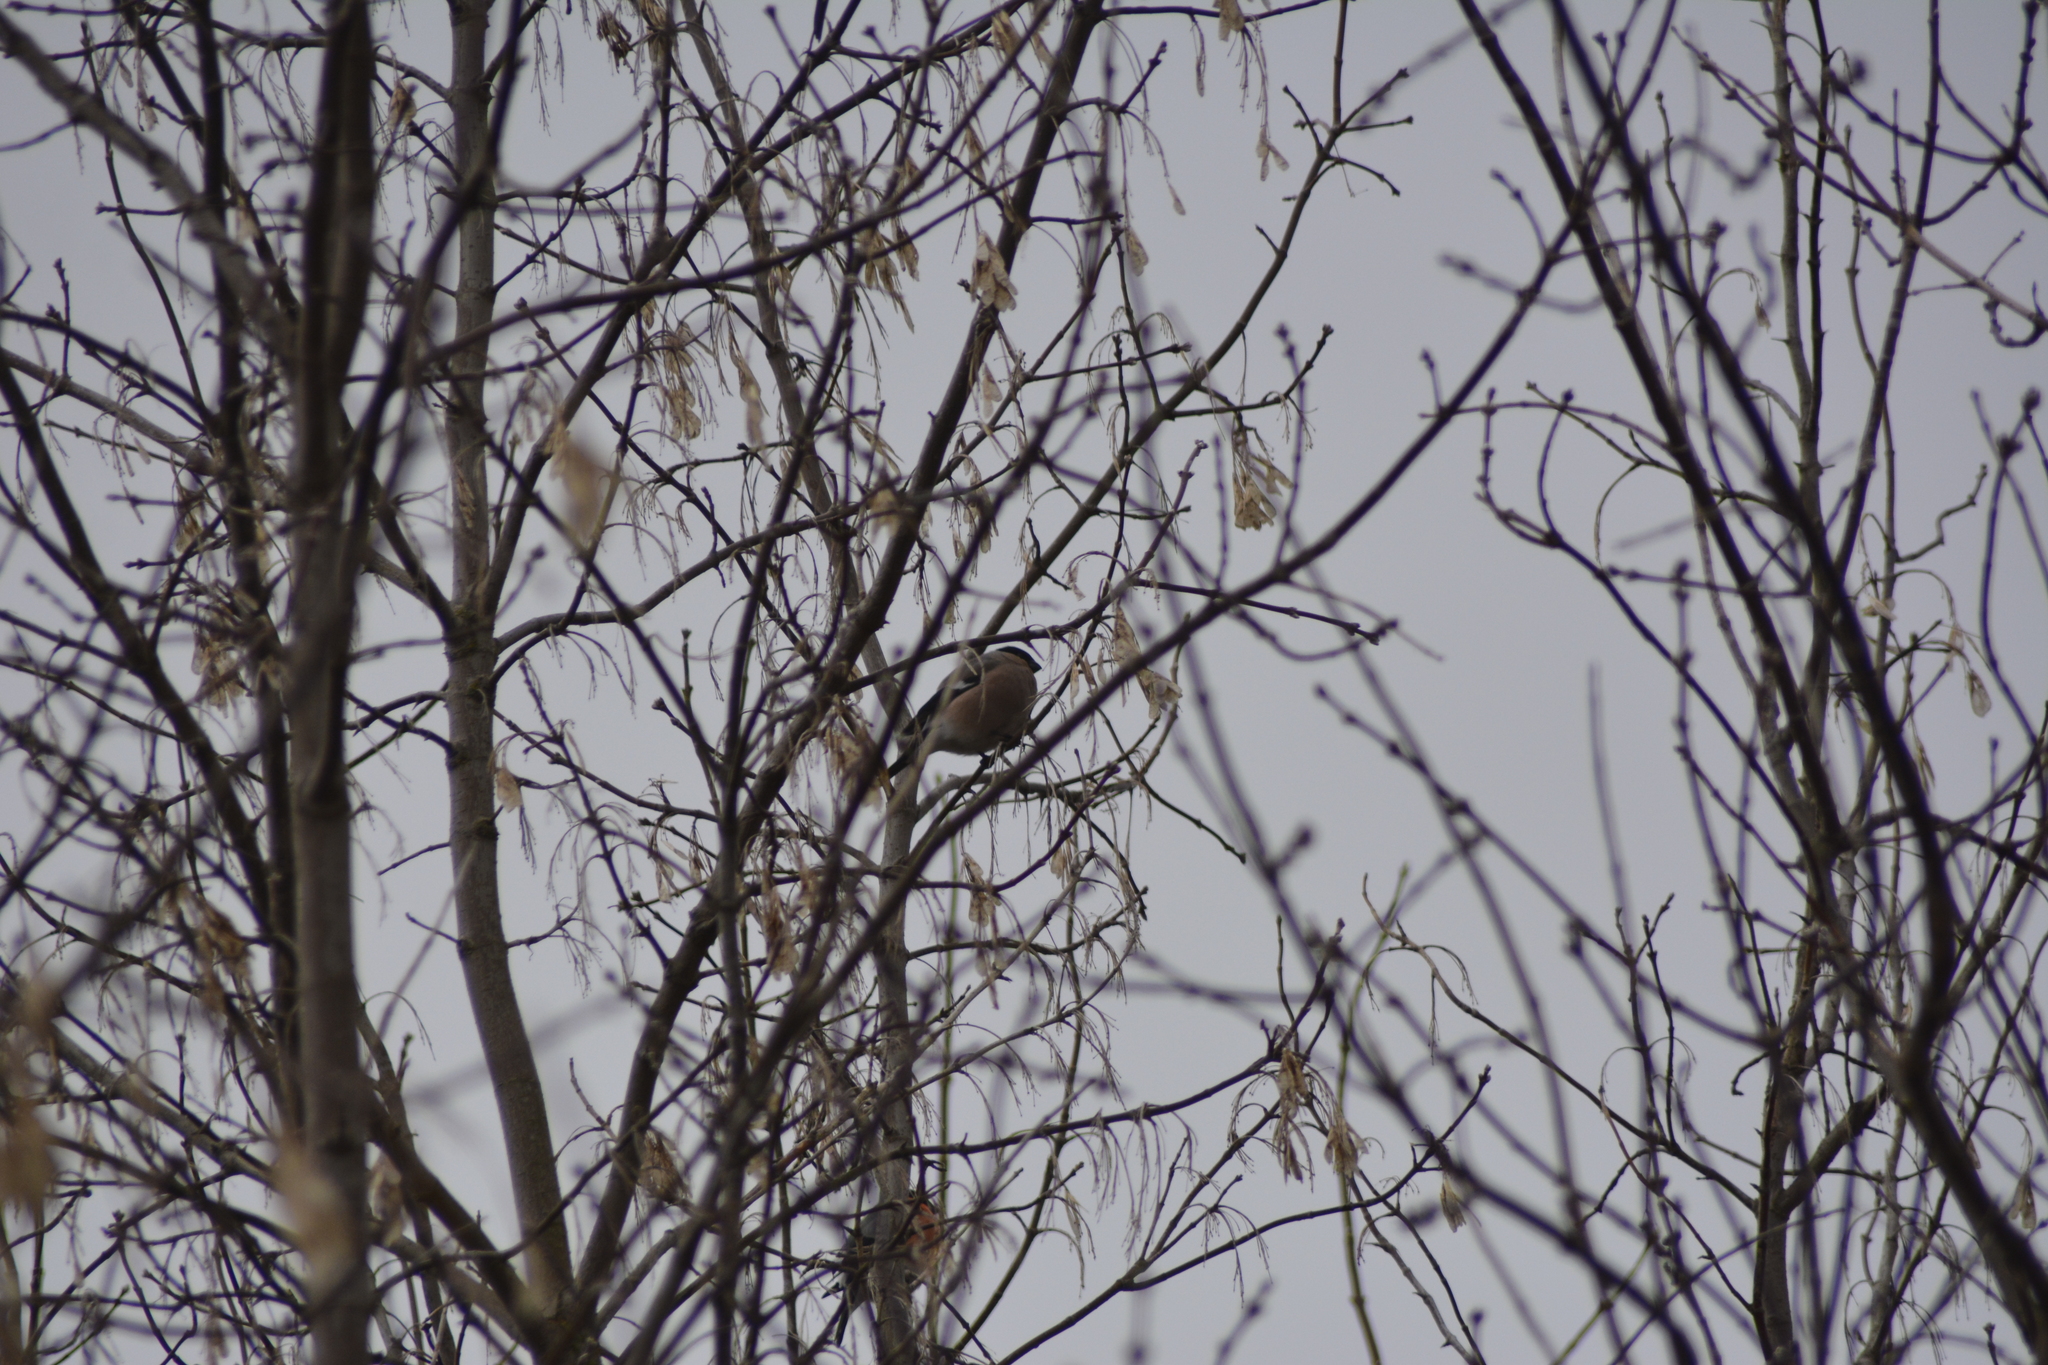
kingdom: Animalia
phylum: Chordata
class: Aves
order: Passeriformes
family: Fringillidae
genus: Pyrrhula
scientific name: Pyrrhula pyrrhula
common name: Eurasian bullfinch
